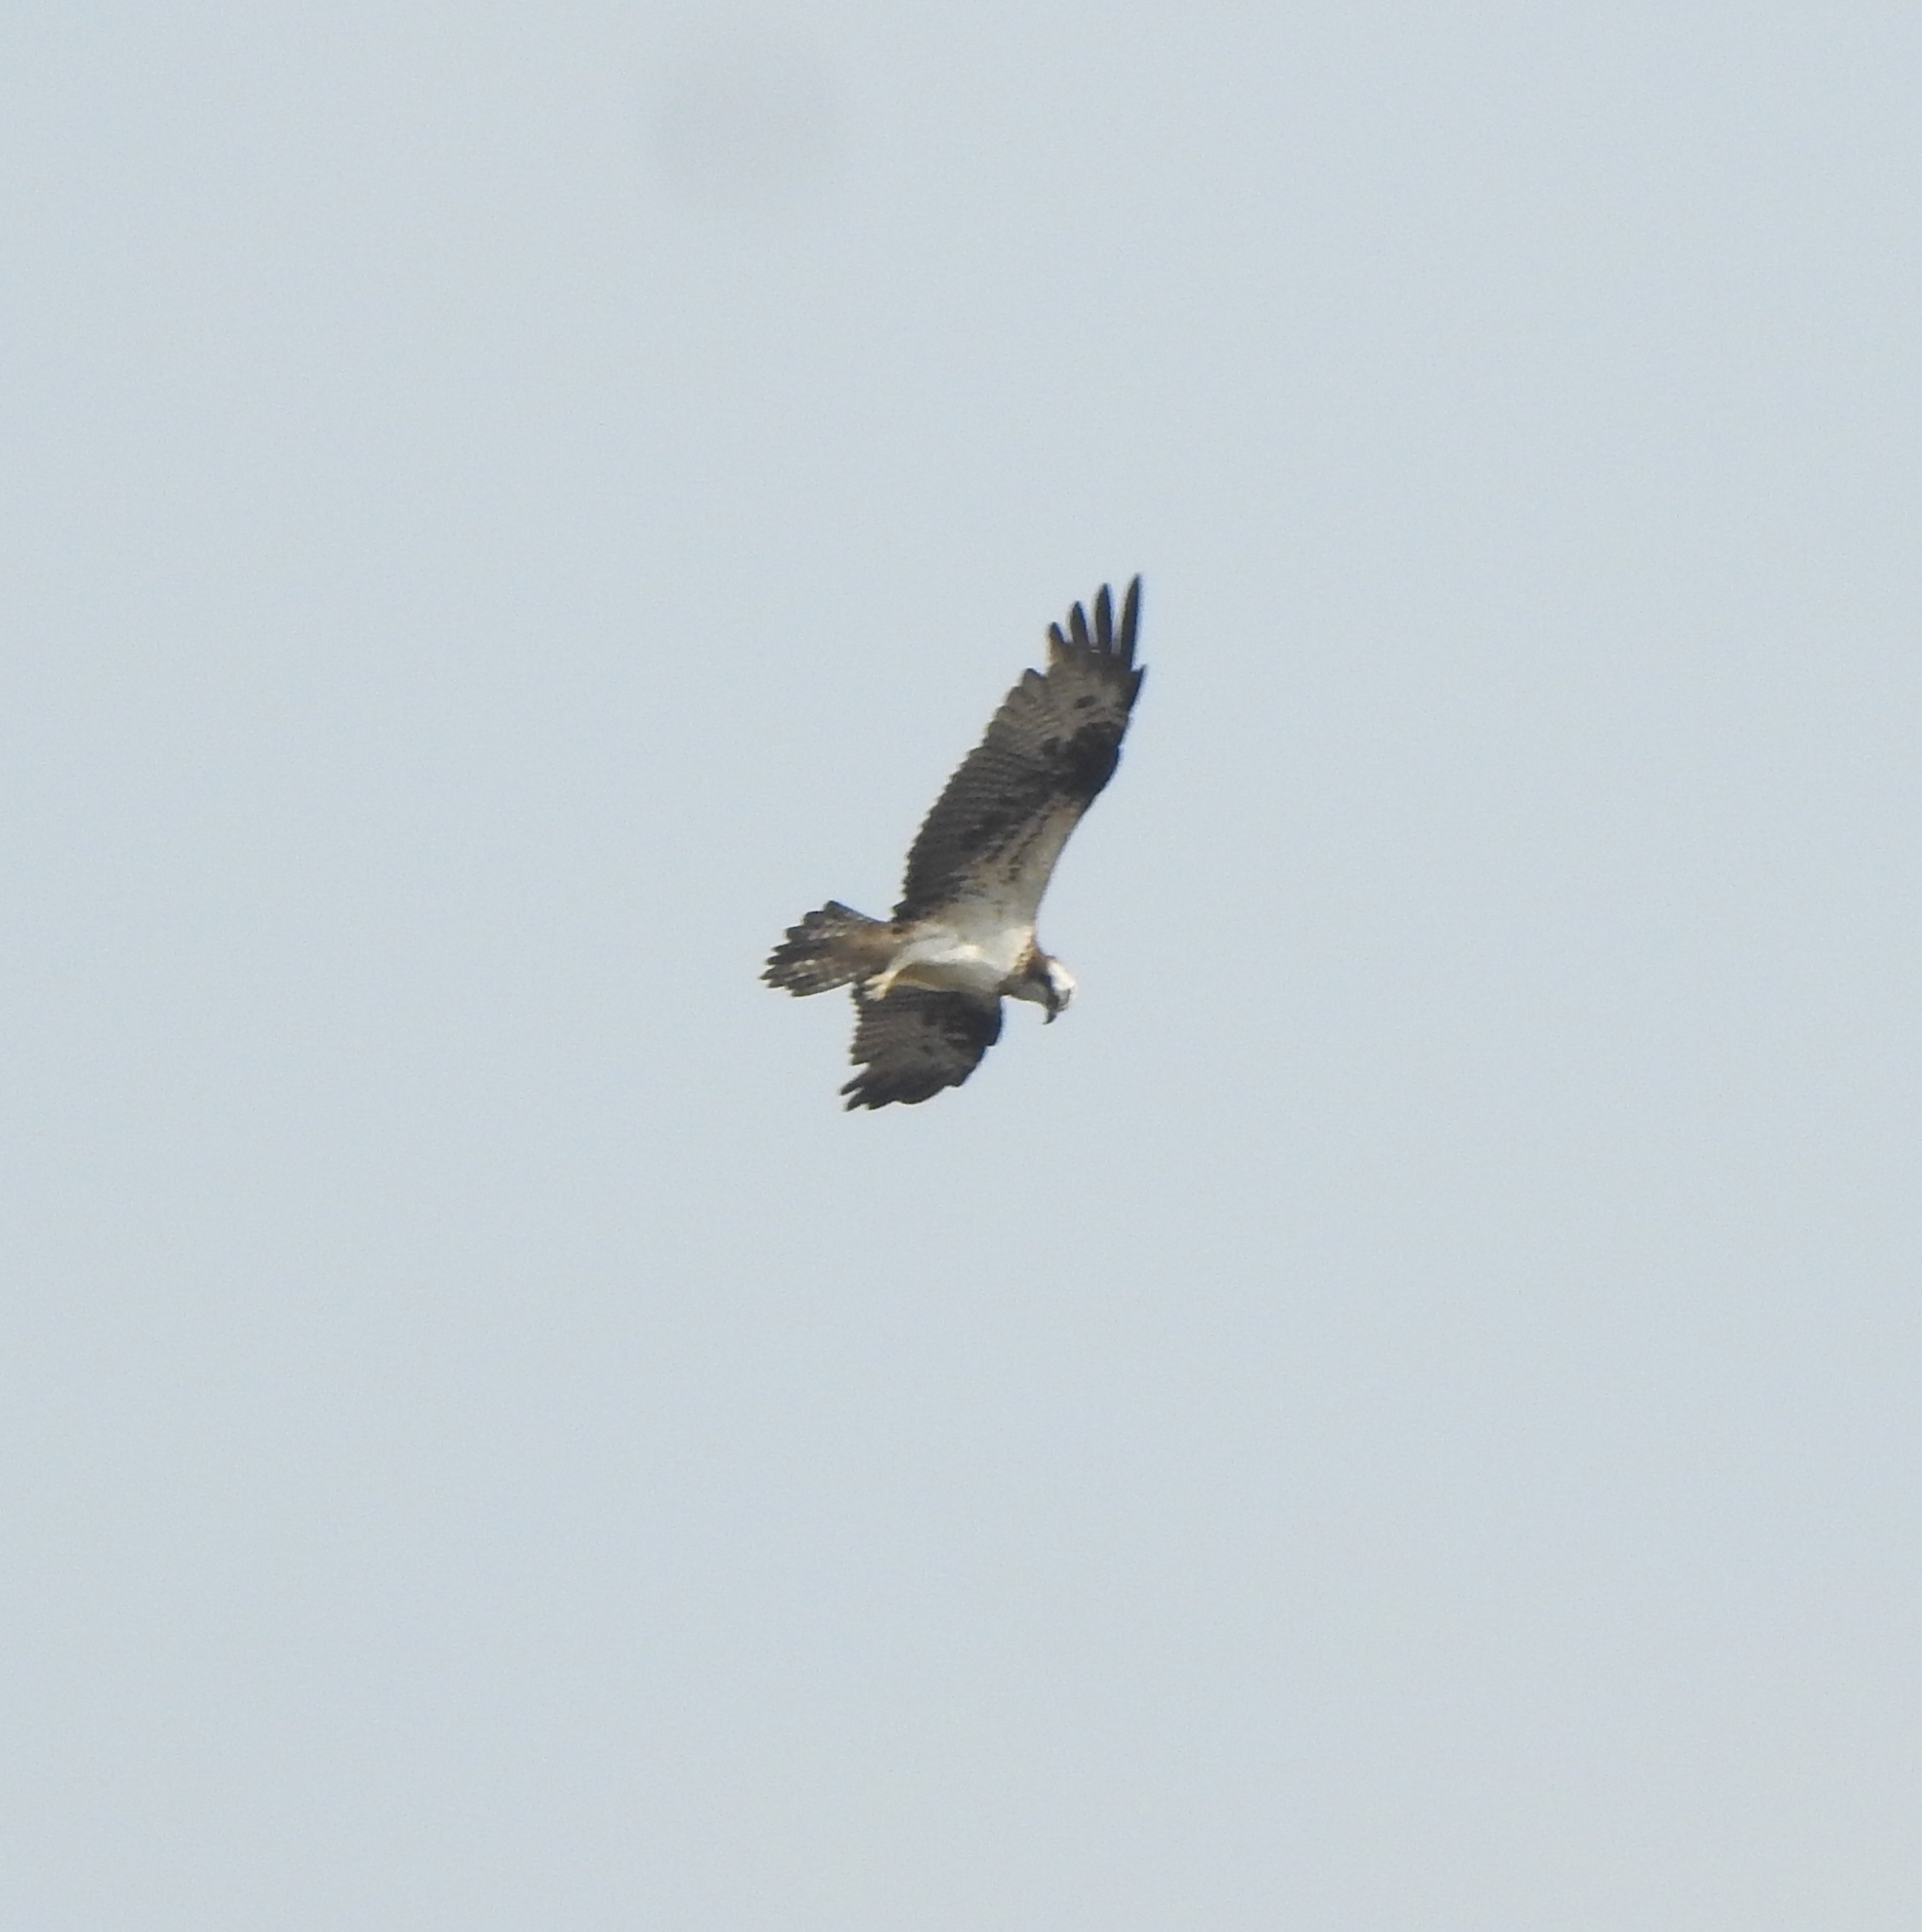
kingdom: Animalia
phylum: Chordata
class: Aves
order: Accipitriformes
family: Pandionidae
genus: Pandion
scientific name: Pandion haliaetus
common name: Osprey
